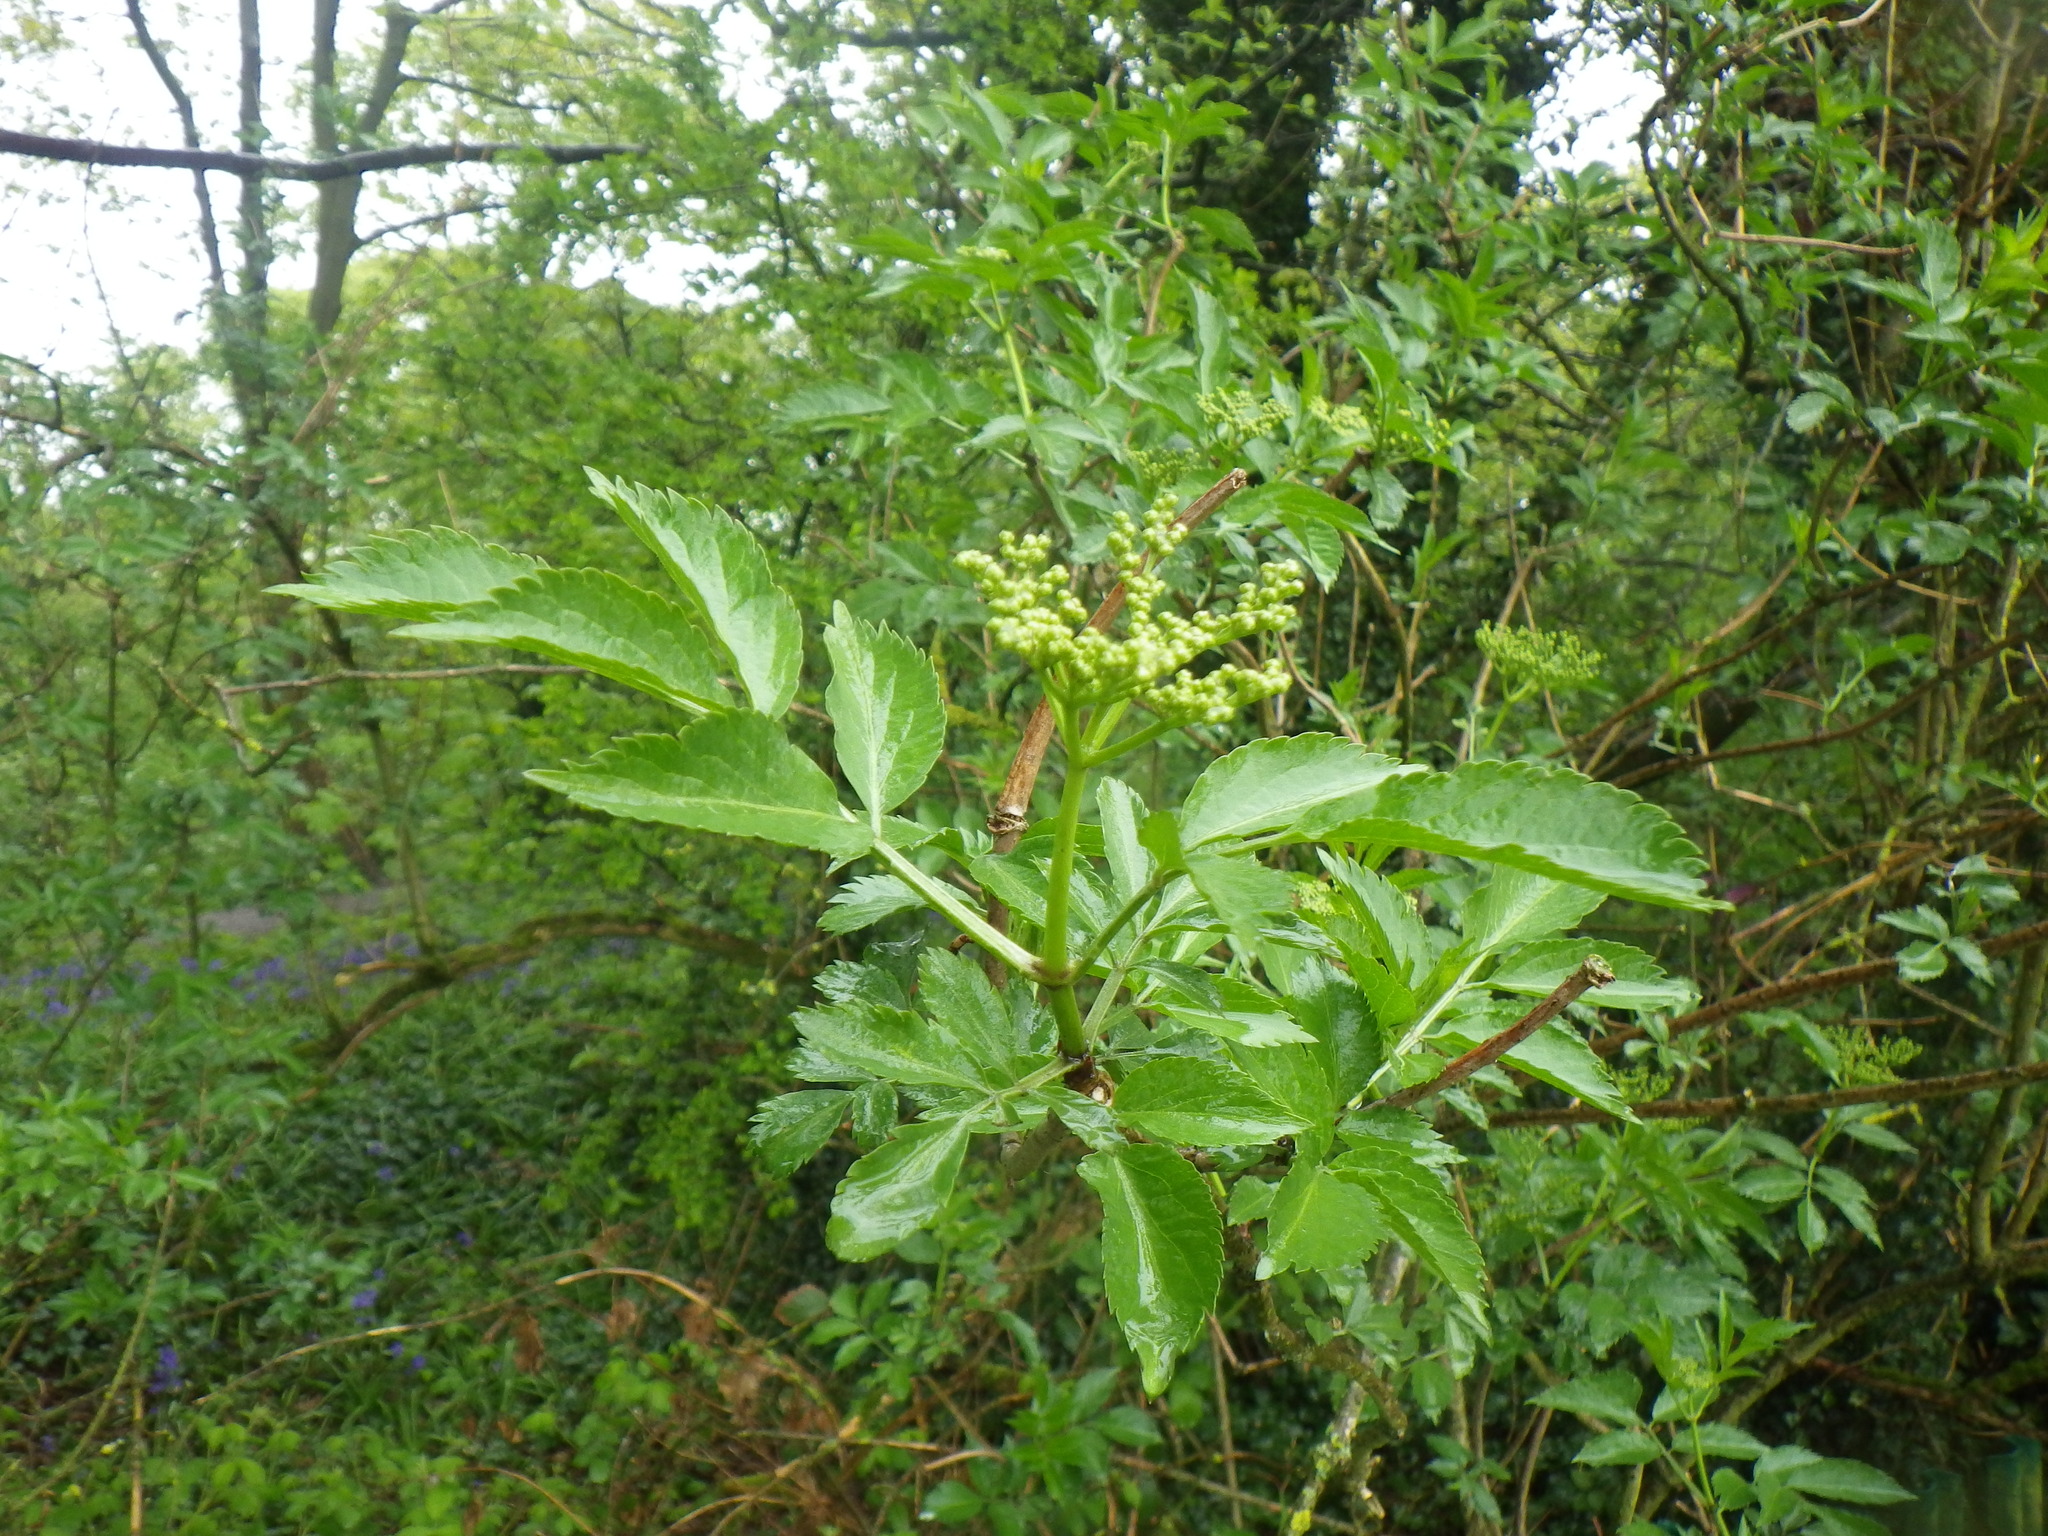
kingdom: Plantae
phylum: Tracheophyta
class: Magnoliopsida
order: Dipsacales
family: Viburnaceae
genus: Sambucus
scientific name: Sambucus nigra
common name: Elder
